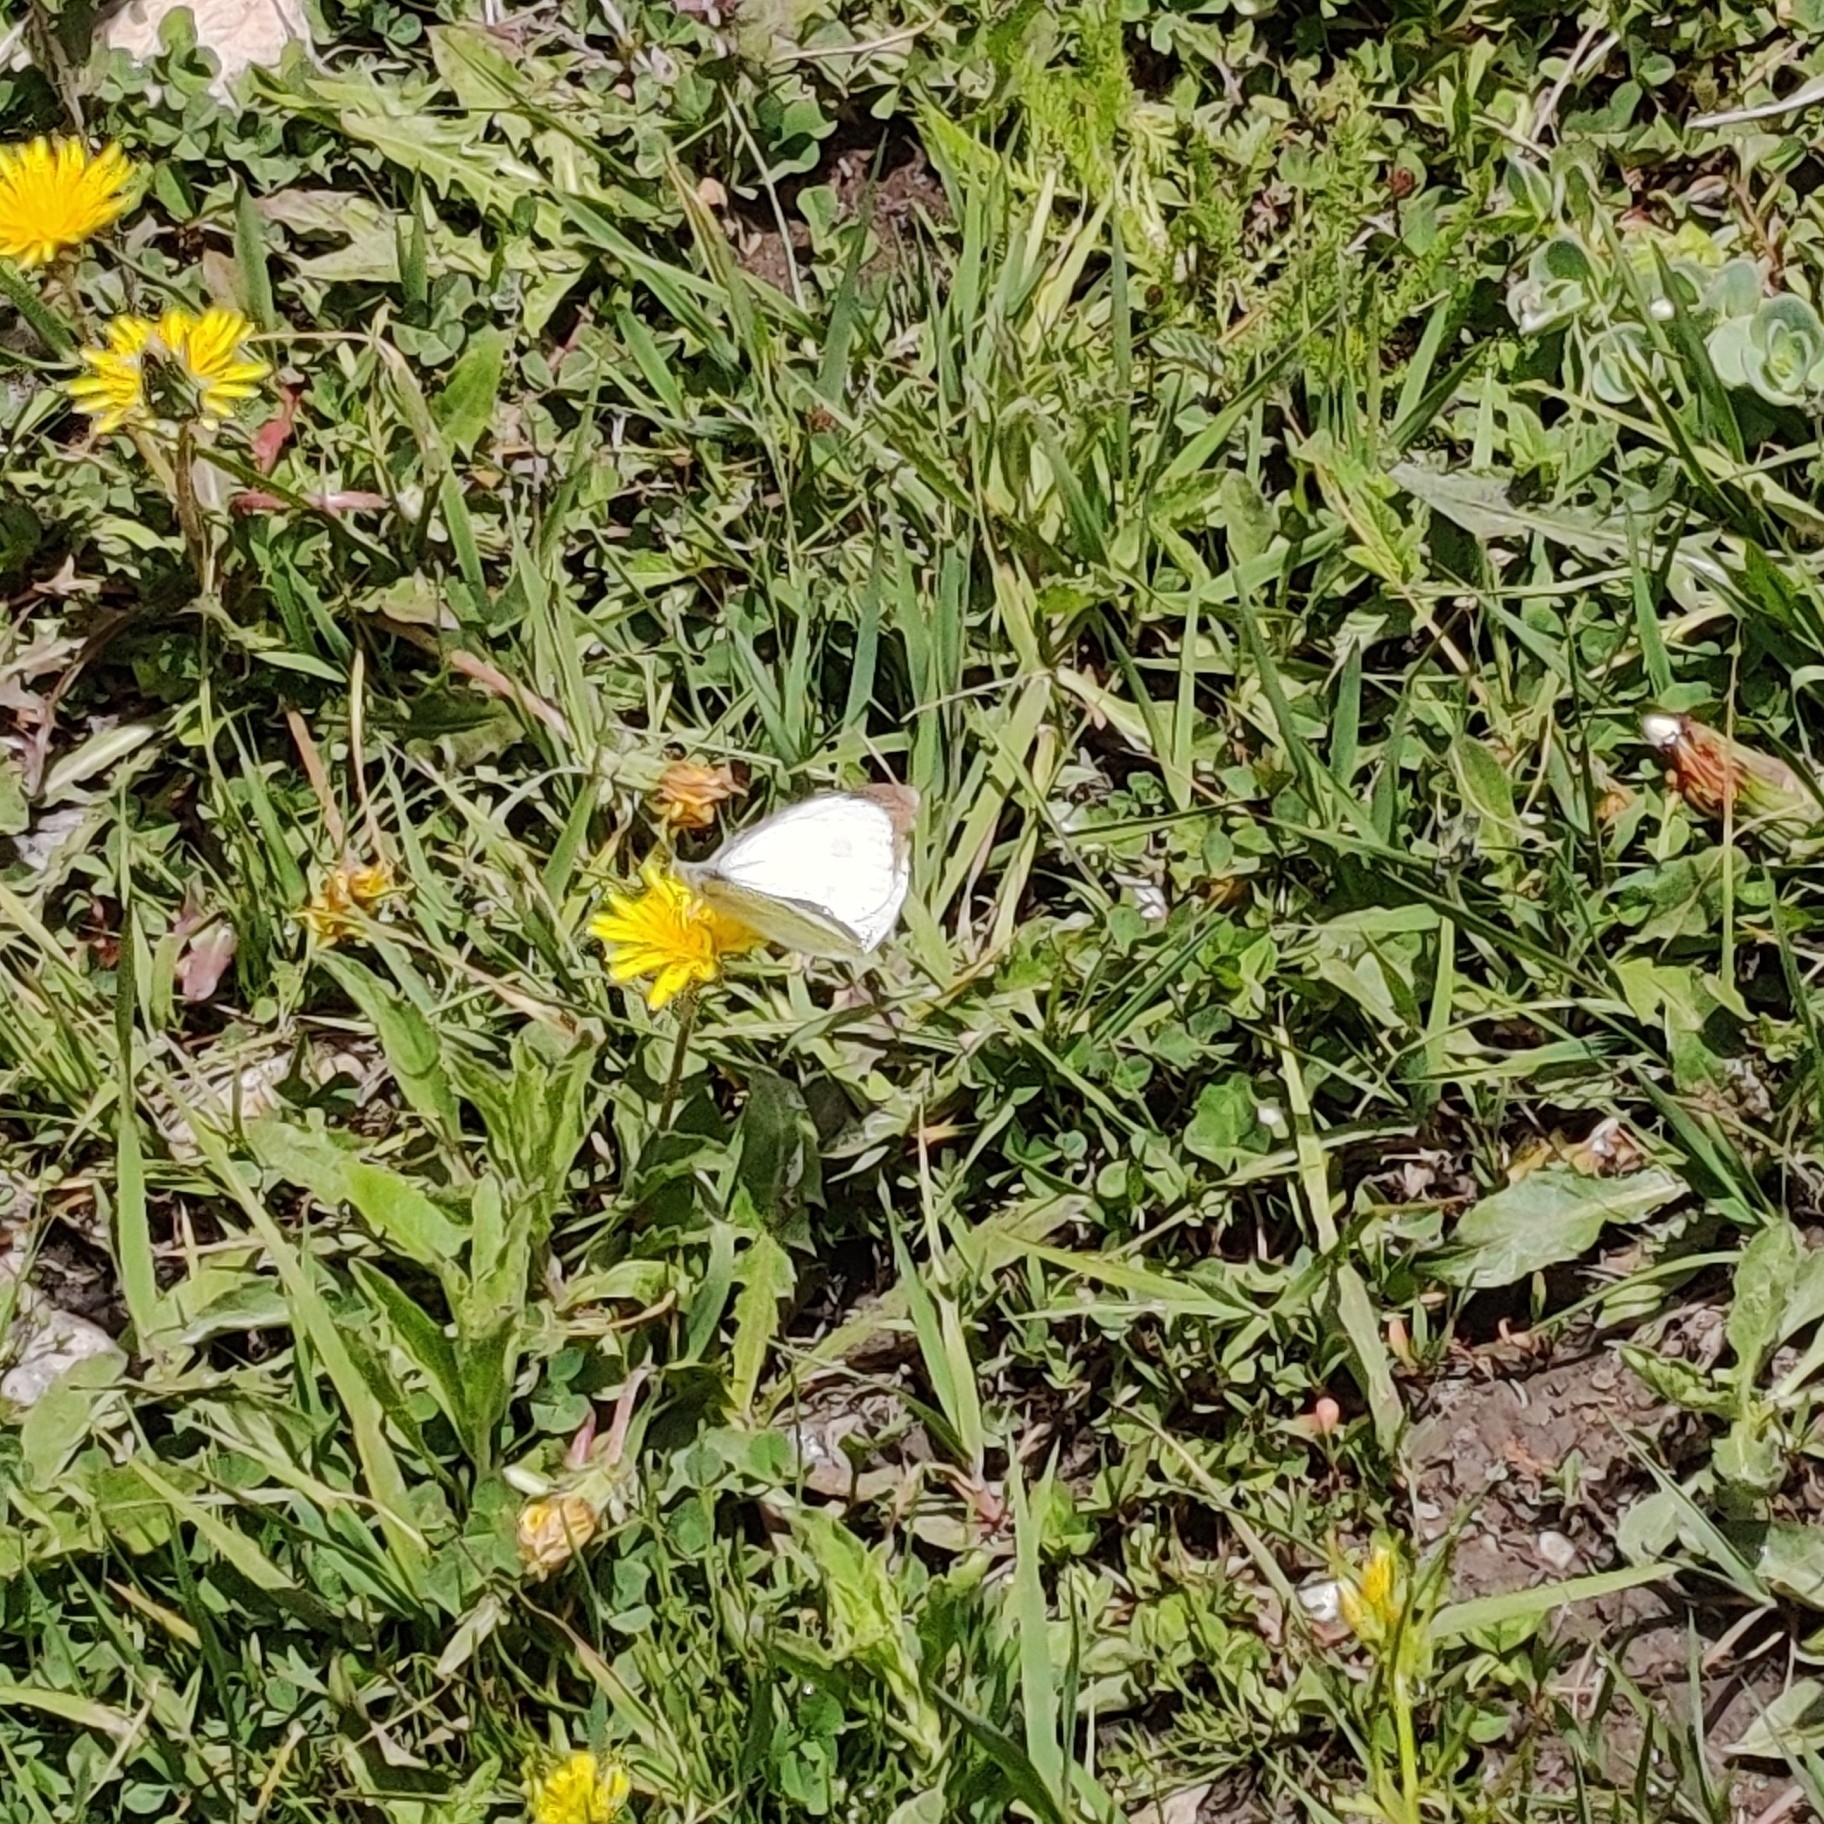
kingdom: Animalia
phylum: Arthropoda
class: Insecta
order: Lepidoptera
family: Pieridae
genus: Pieris
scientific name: Pieris brassicae
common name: Large white
